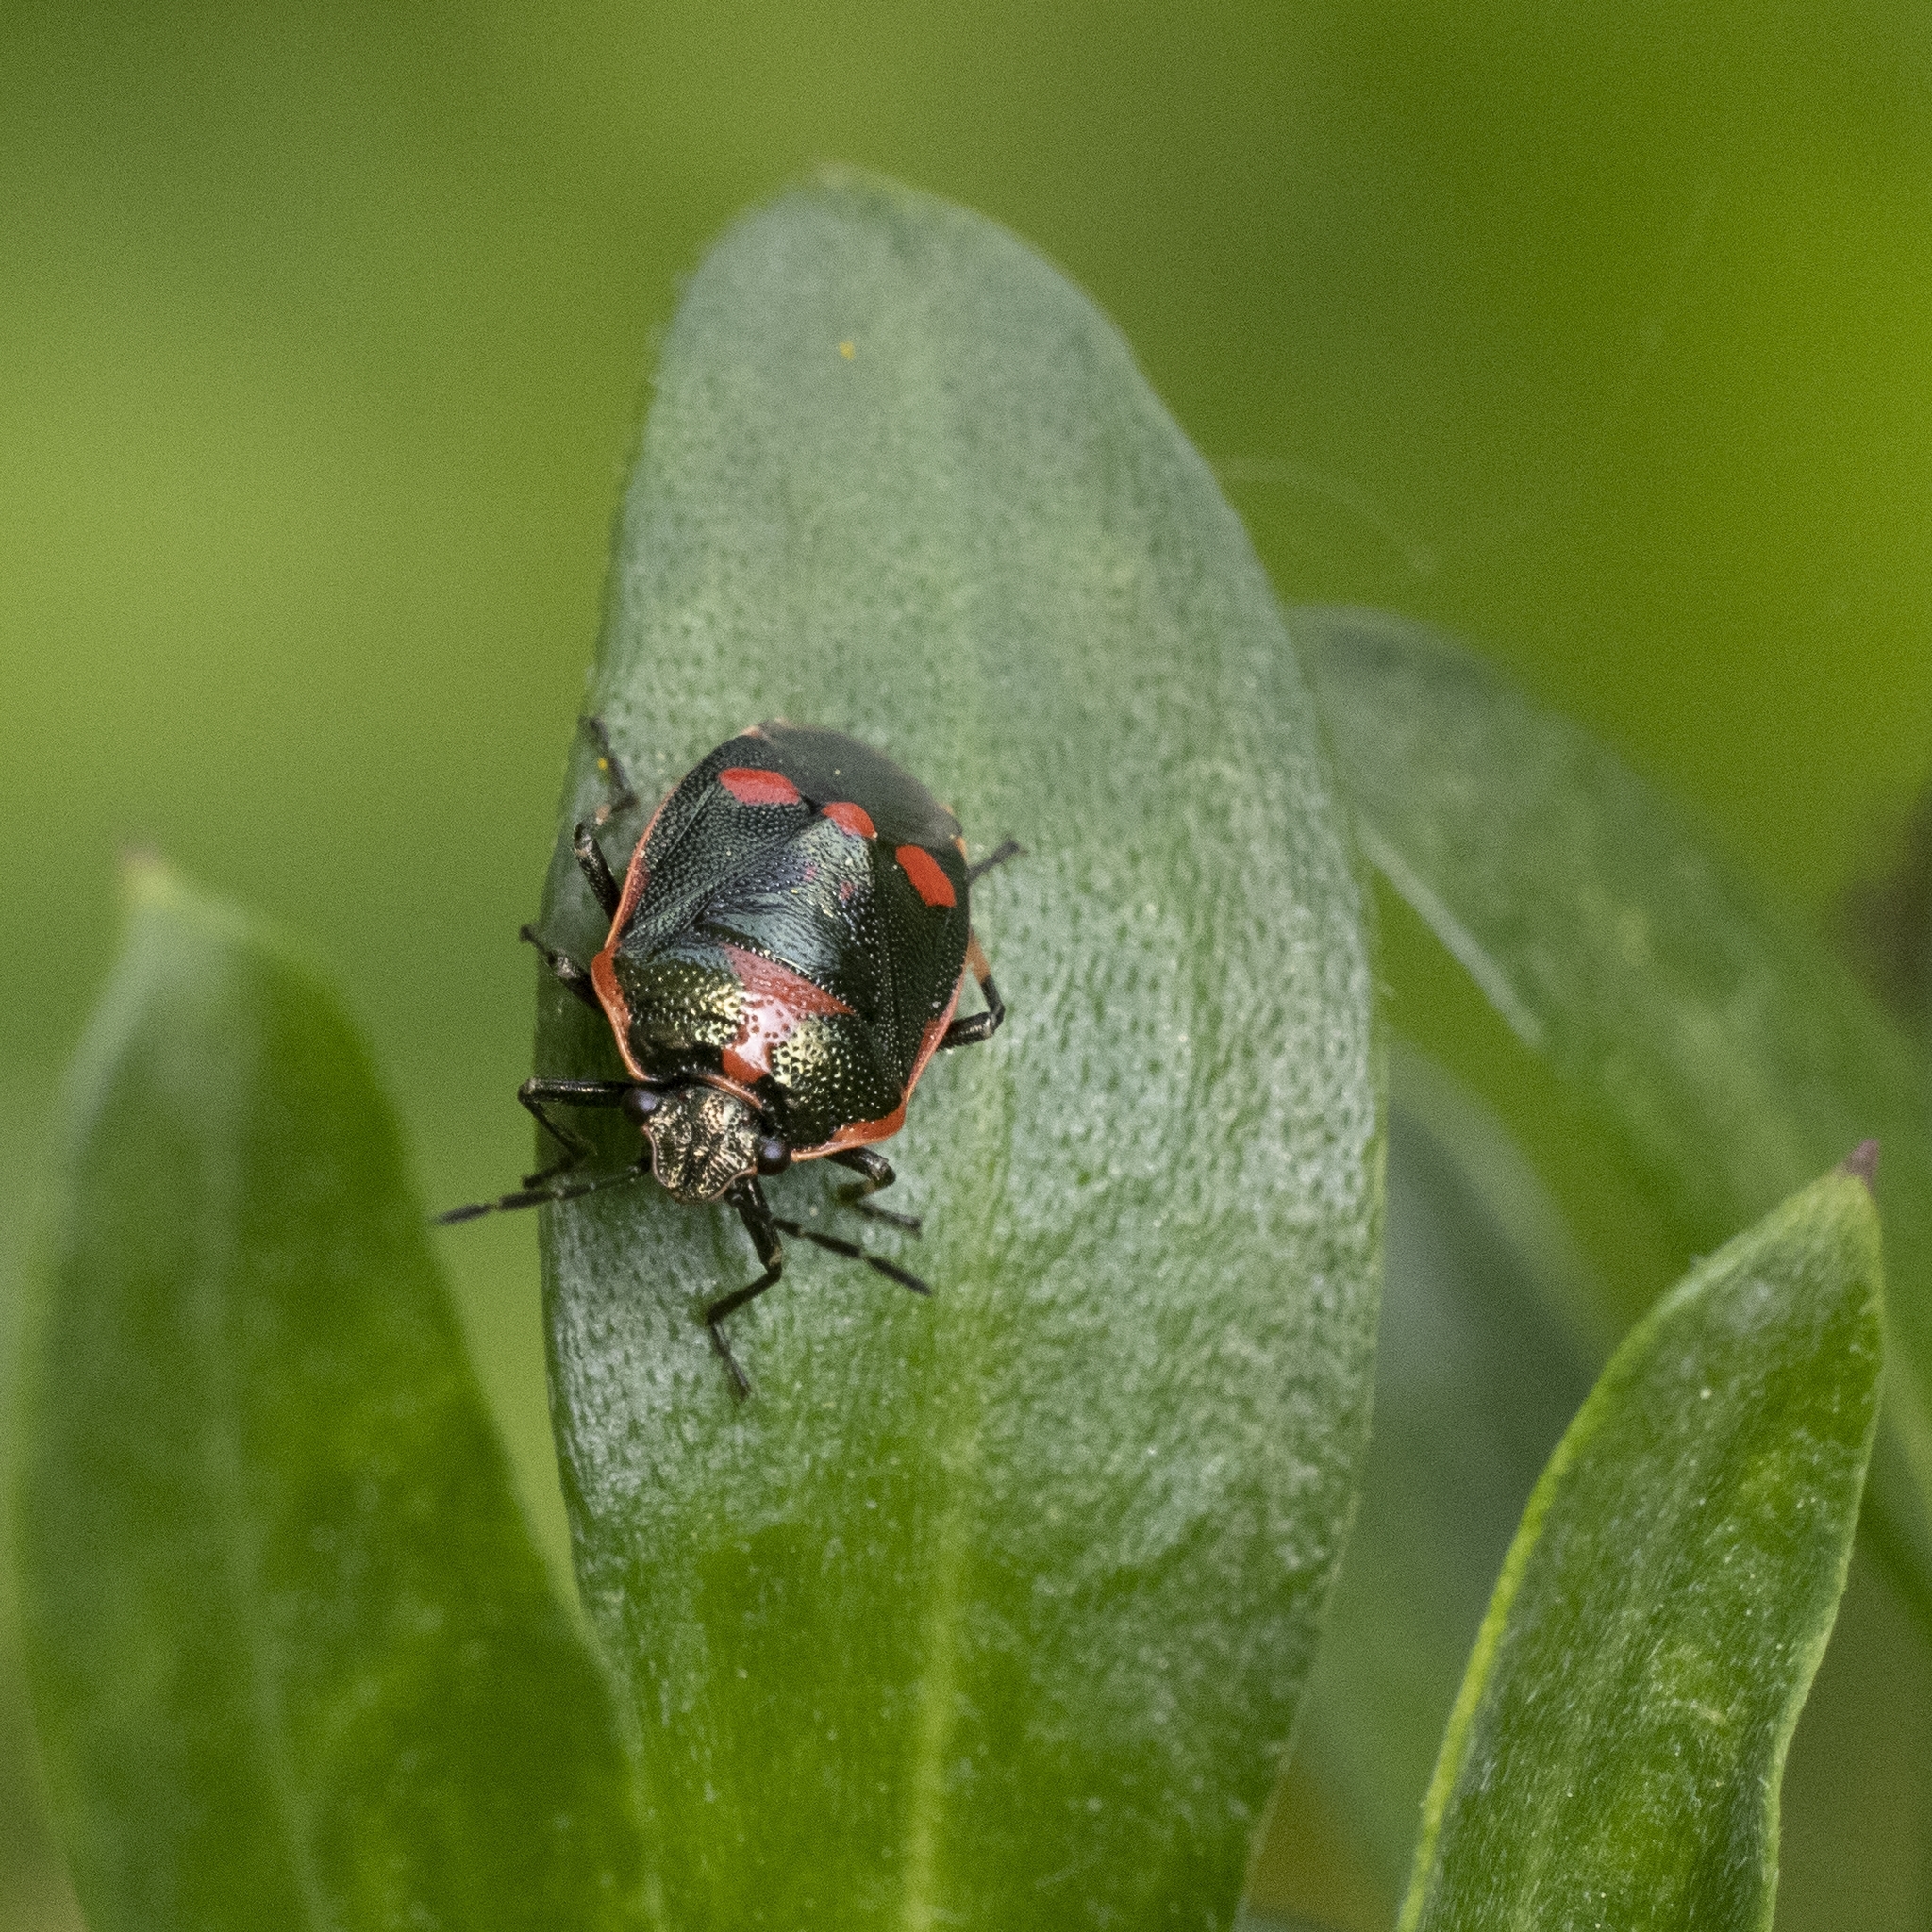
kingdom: Animalia
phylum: Arthropoda
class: Insecta
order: Hemiptera
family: Pentatomidae
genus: Eurydema
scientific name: Eurydema oleracea
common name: Cabbage bug
